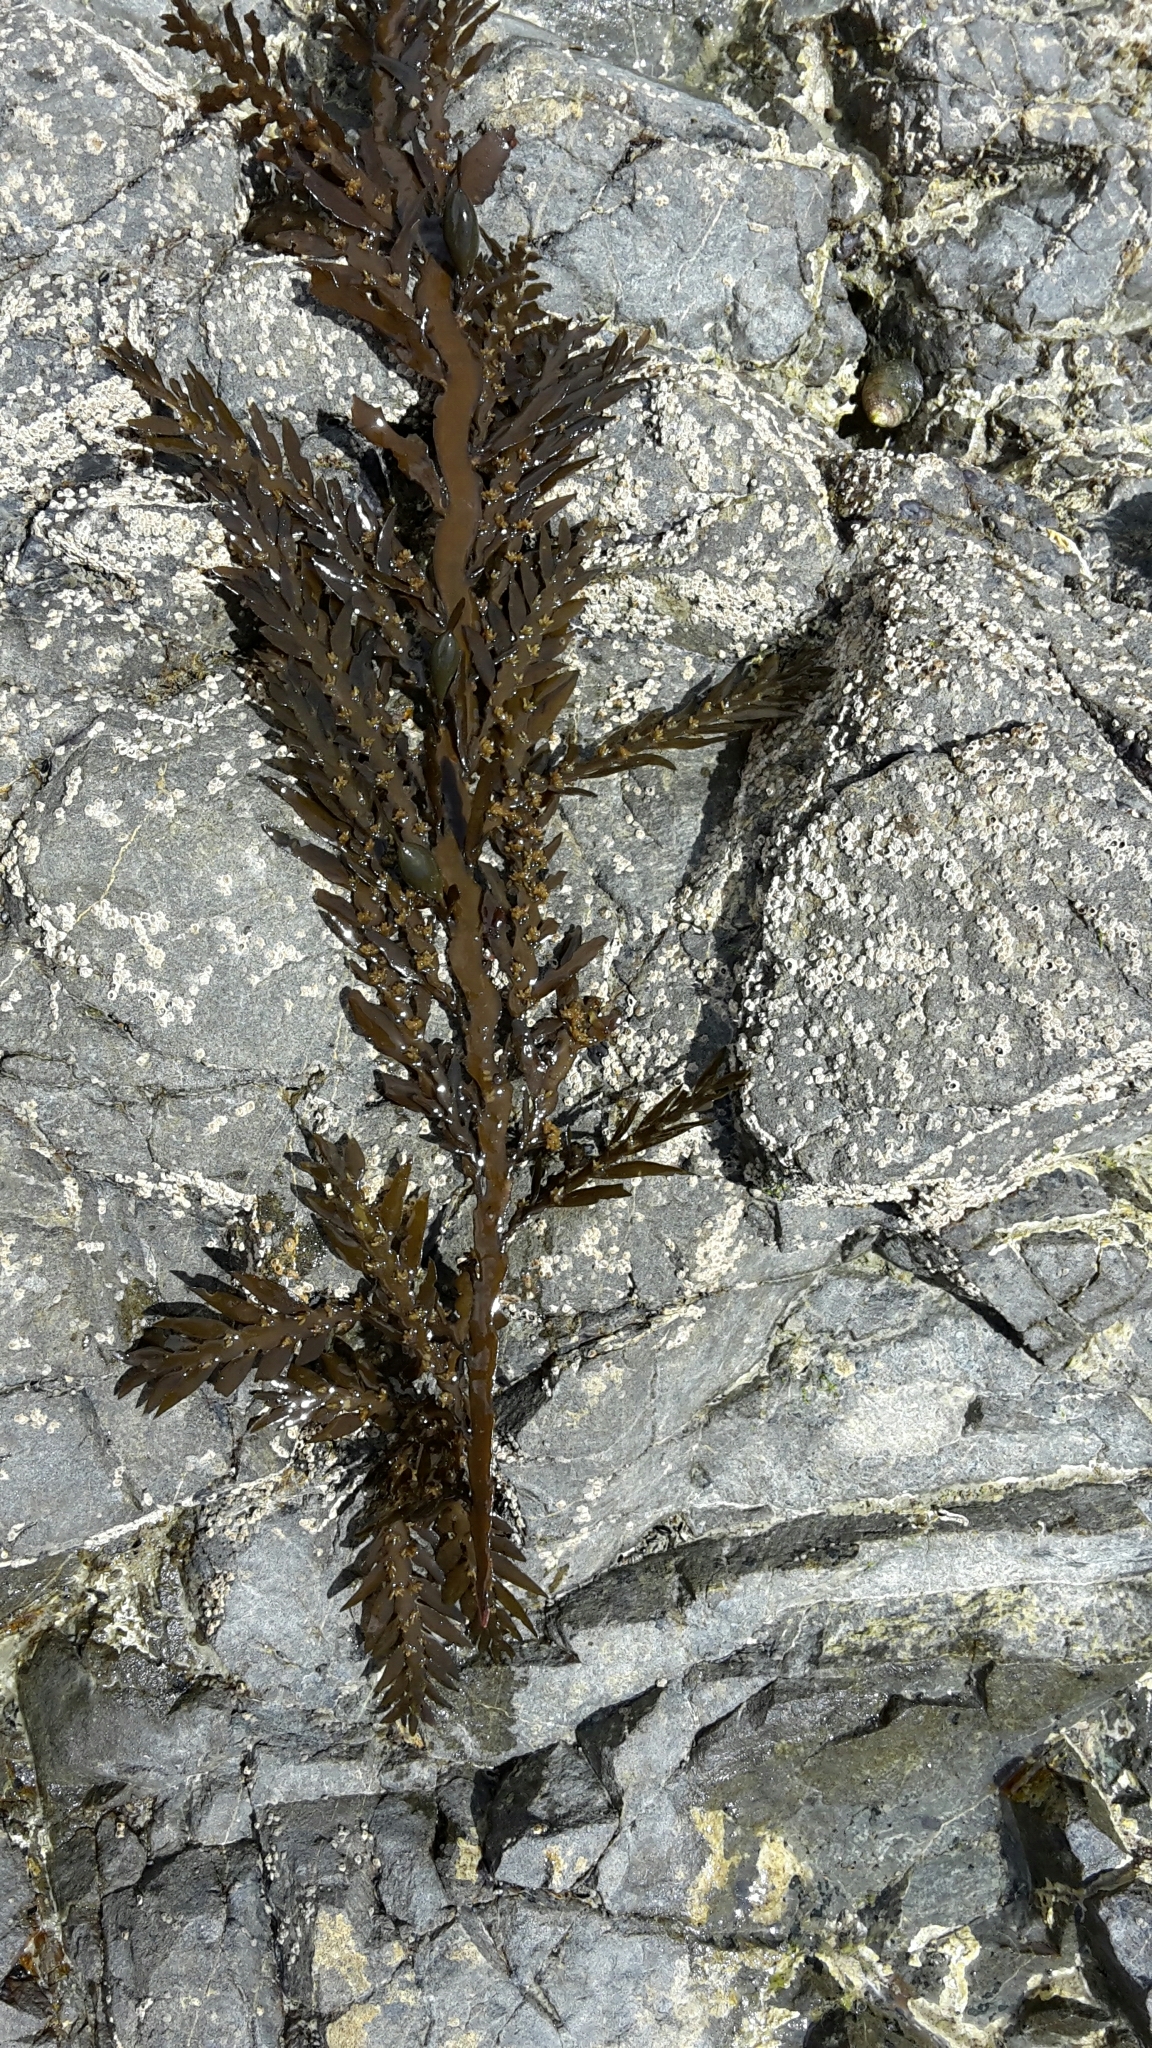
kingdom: Chromista
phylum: Ochrophyta
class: Phaeophyceae
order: Fucales
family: Sargassaceae
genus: Carpophyllum
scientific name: Carpophyllum maschalocarpum
